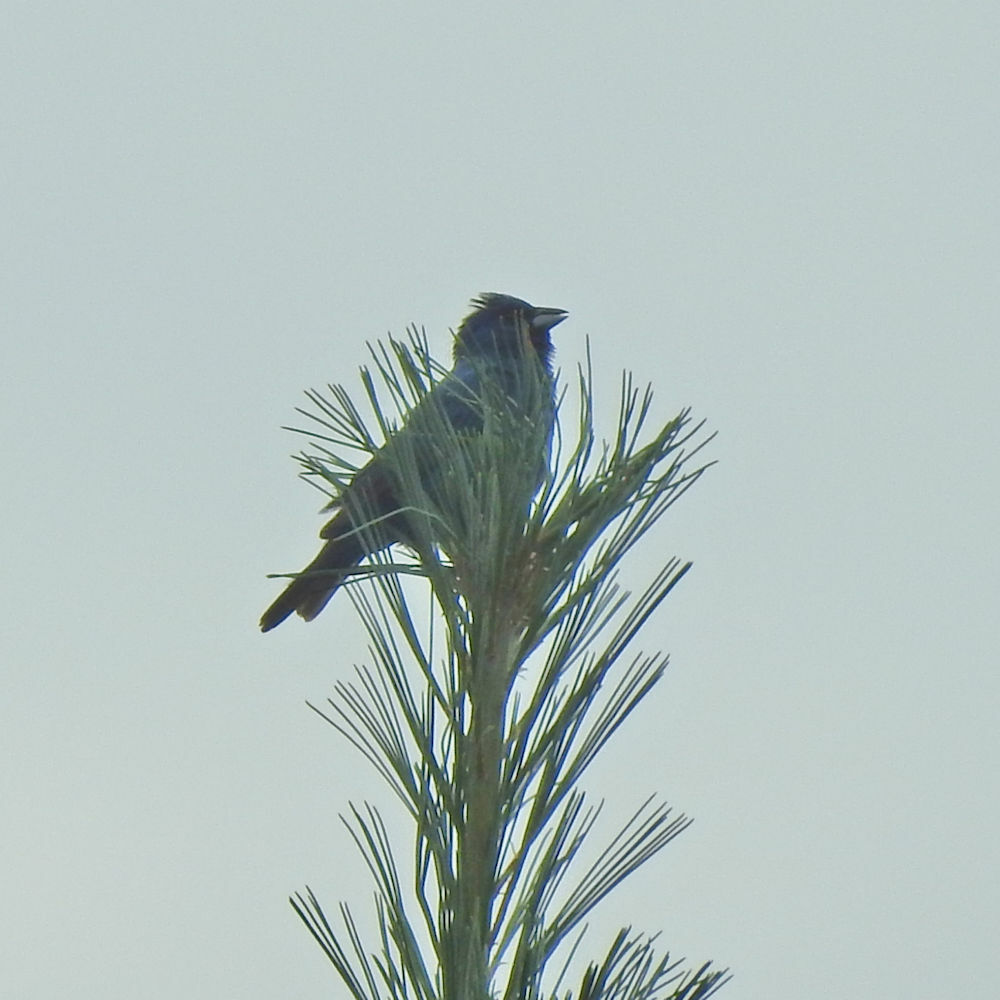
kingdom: Animalia
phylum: Chordata
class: Aves
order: Passeriformes
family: Cardinalidae
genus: Passerina
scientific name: Passerina cyanea
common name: Indigo bunting
